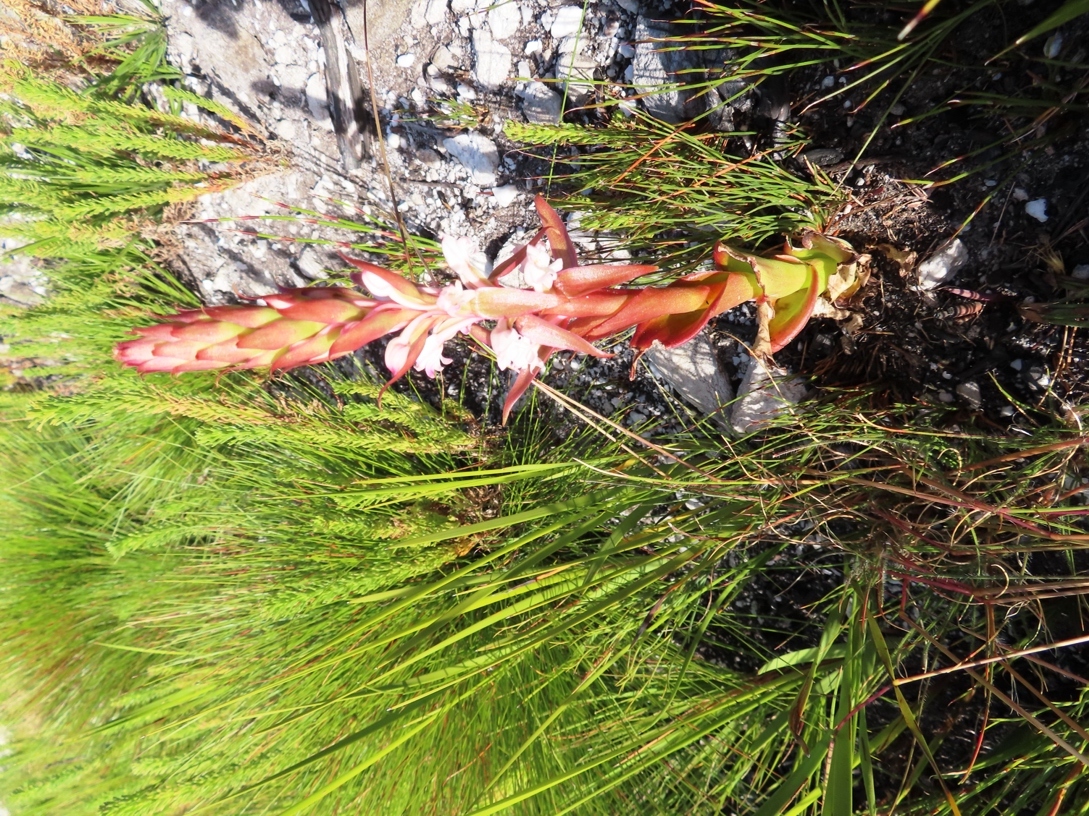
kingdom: Plantae
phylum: Tracheophyta
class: Liliopsida
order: Asparagales
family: Orchidaceae
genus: Satyrium
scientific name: Satyrium acuminatum
